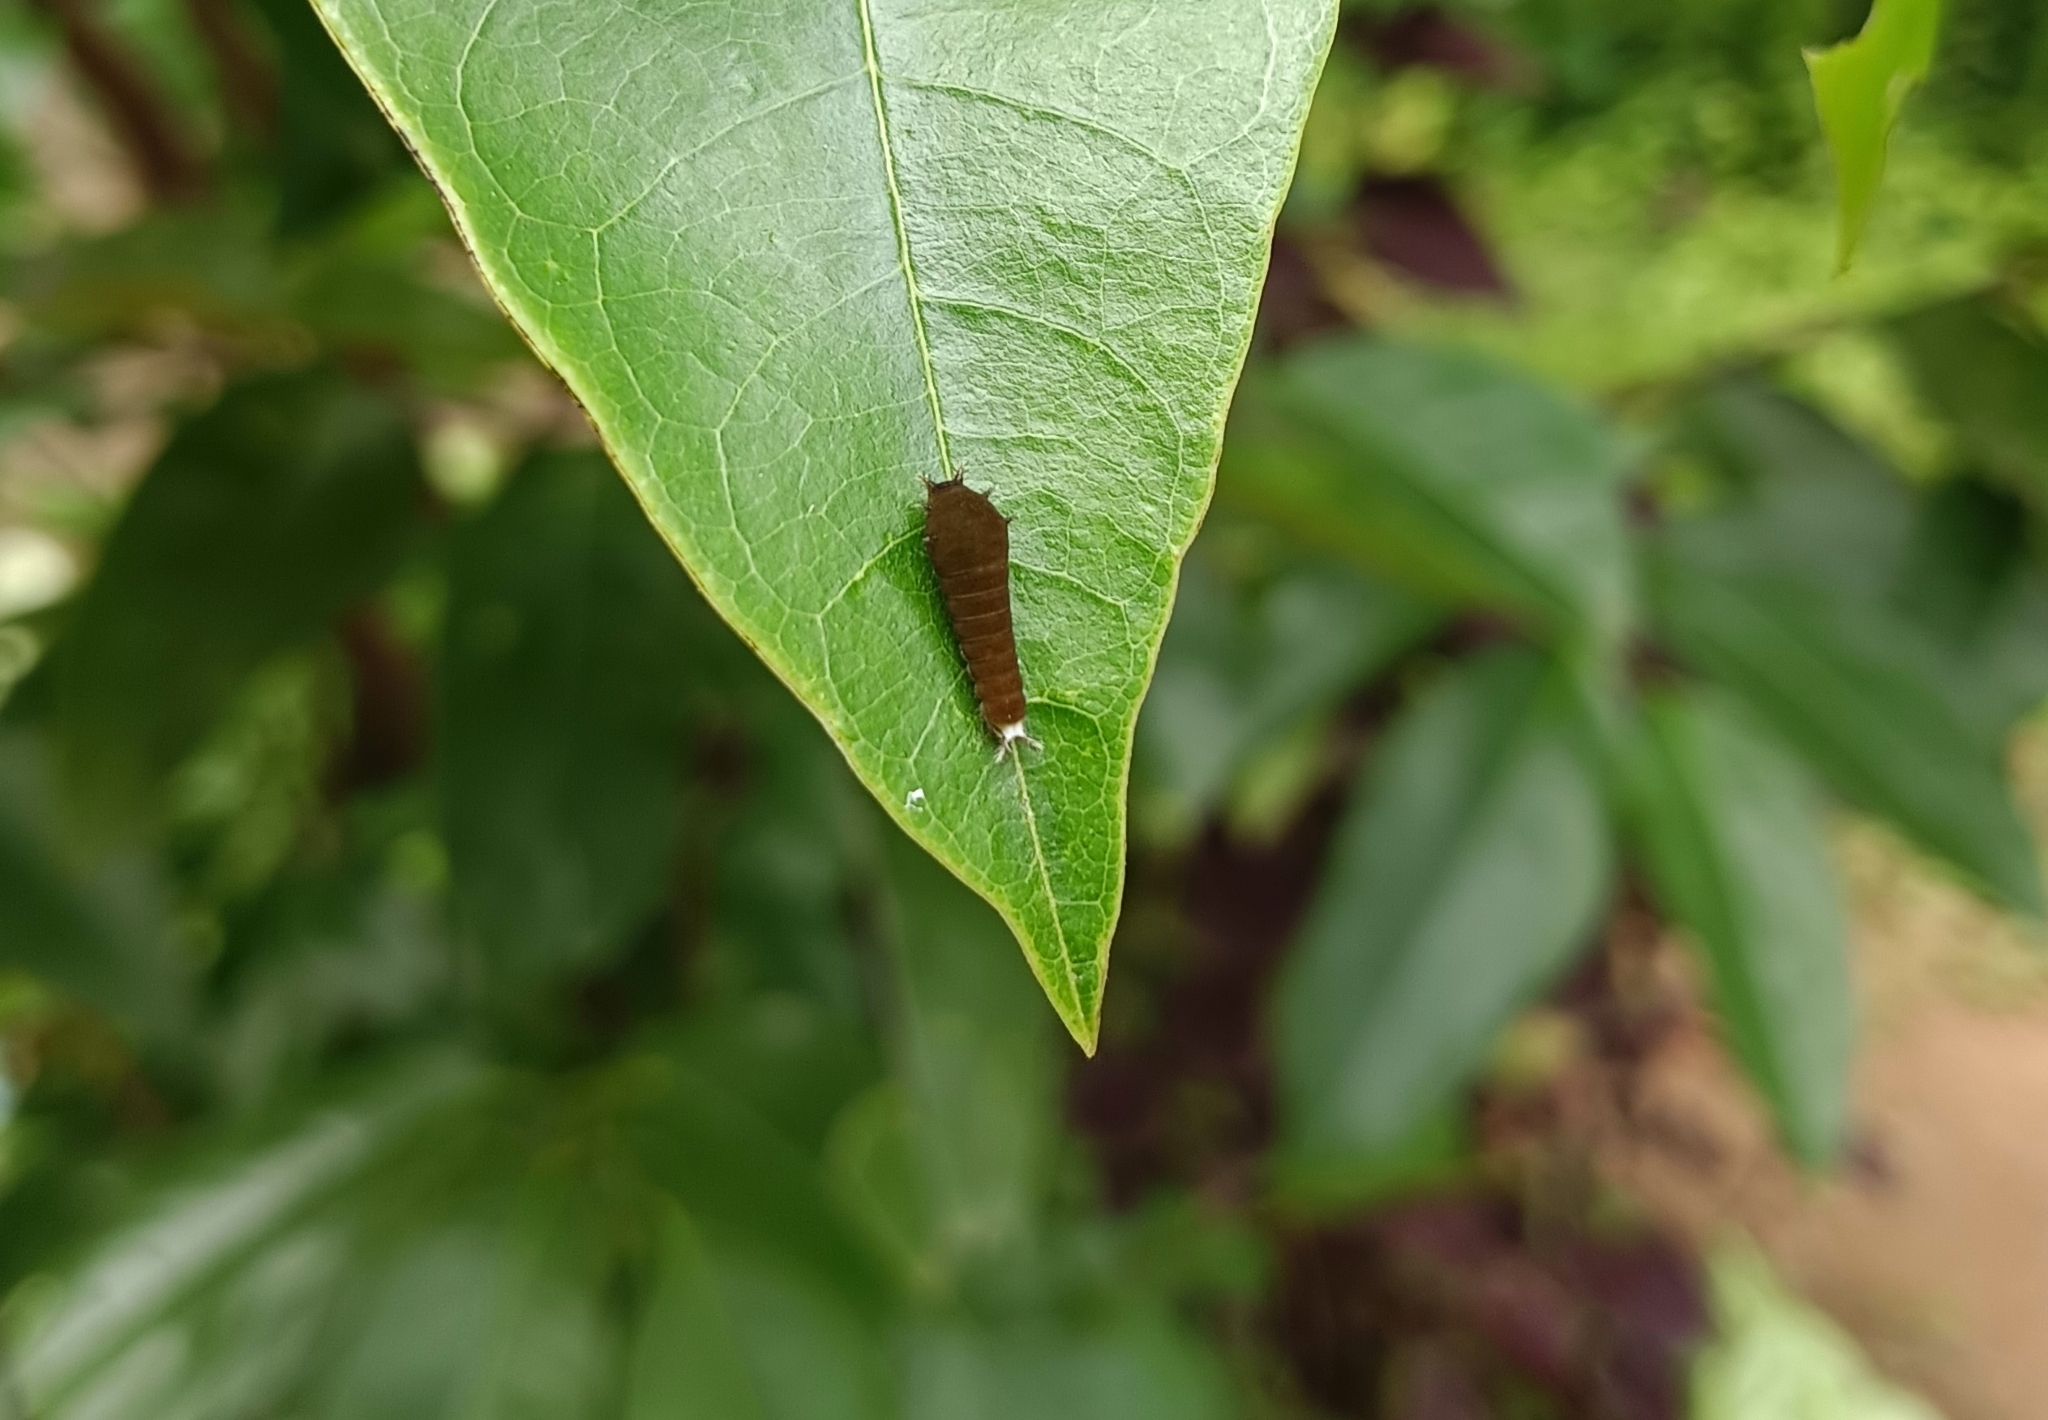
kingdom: Animalia
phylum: Arthropoda
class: Insecta
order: Lepidoptera
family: Papilionidae
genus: Graphium
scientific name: Graphium doson
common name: Common jay
